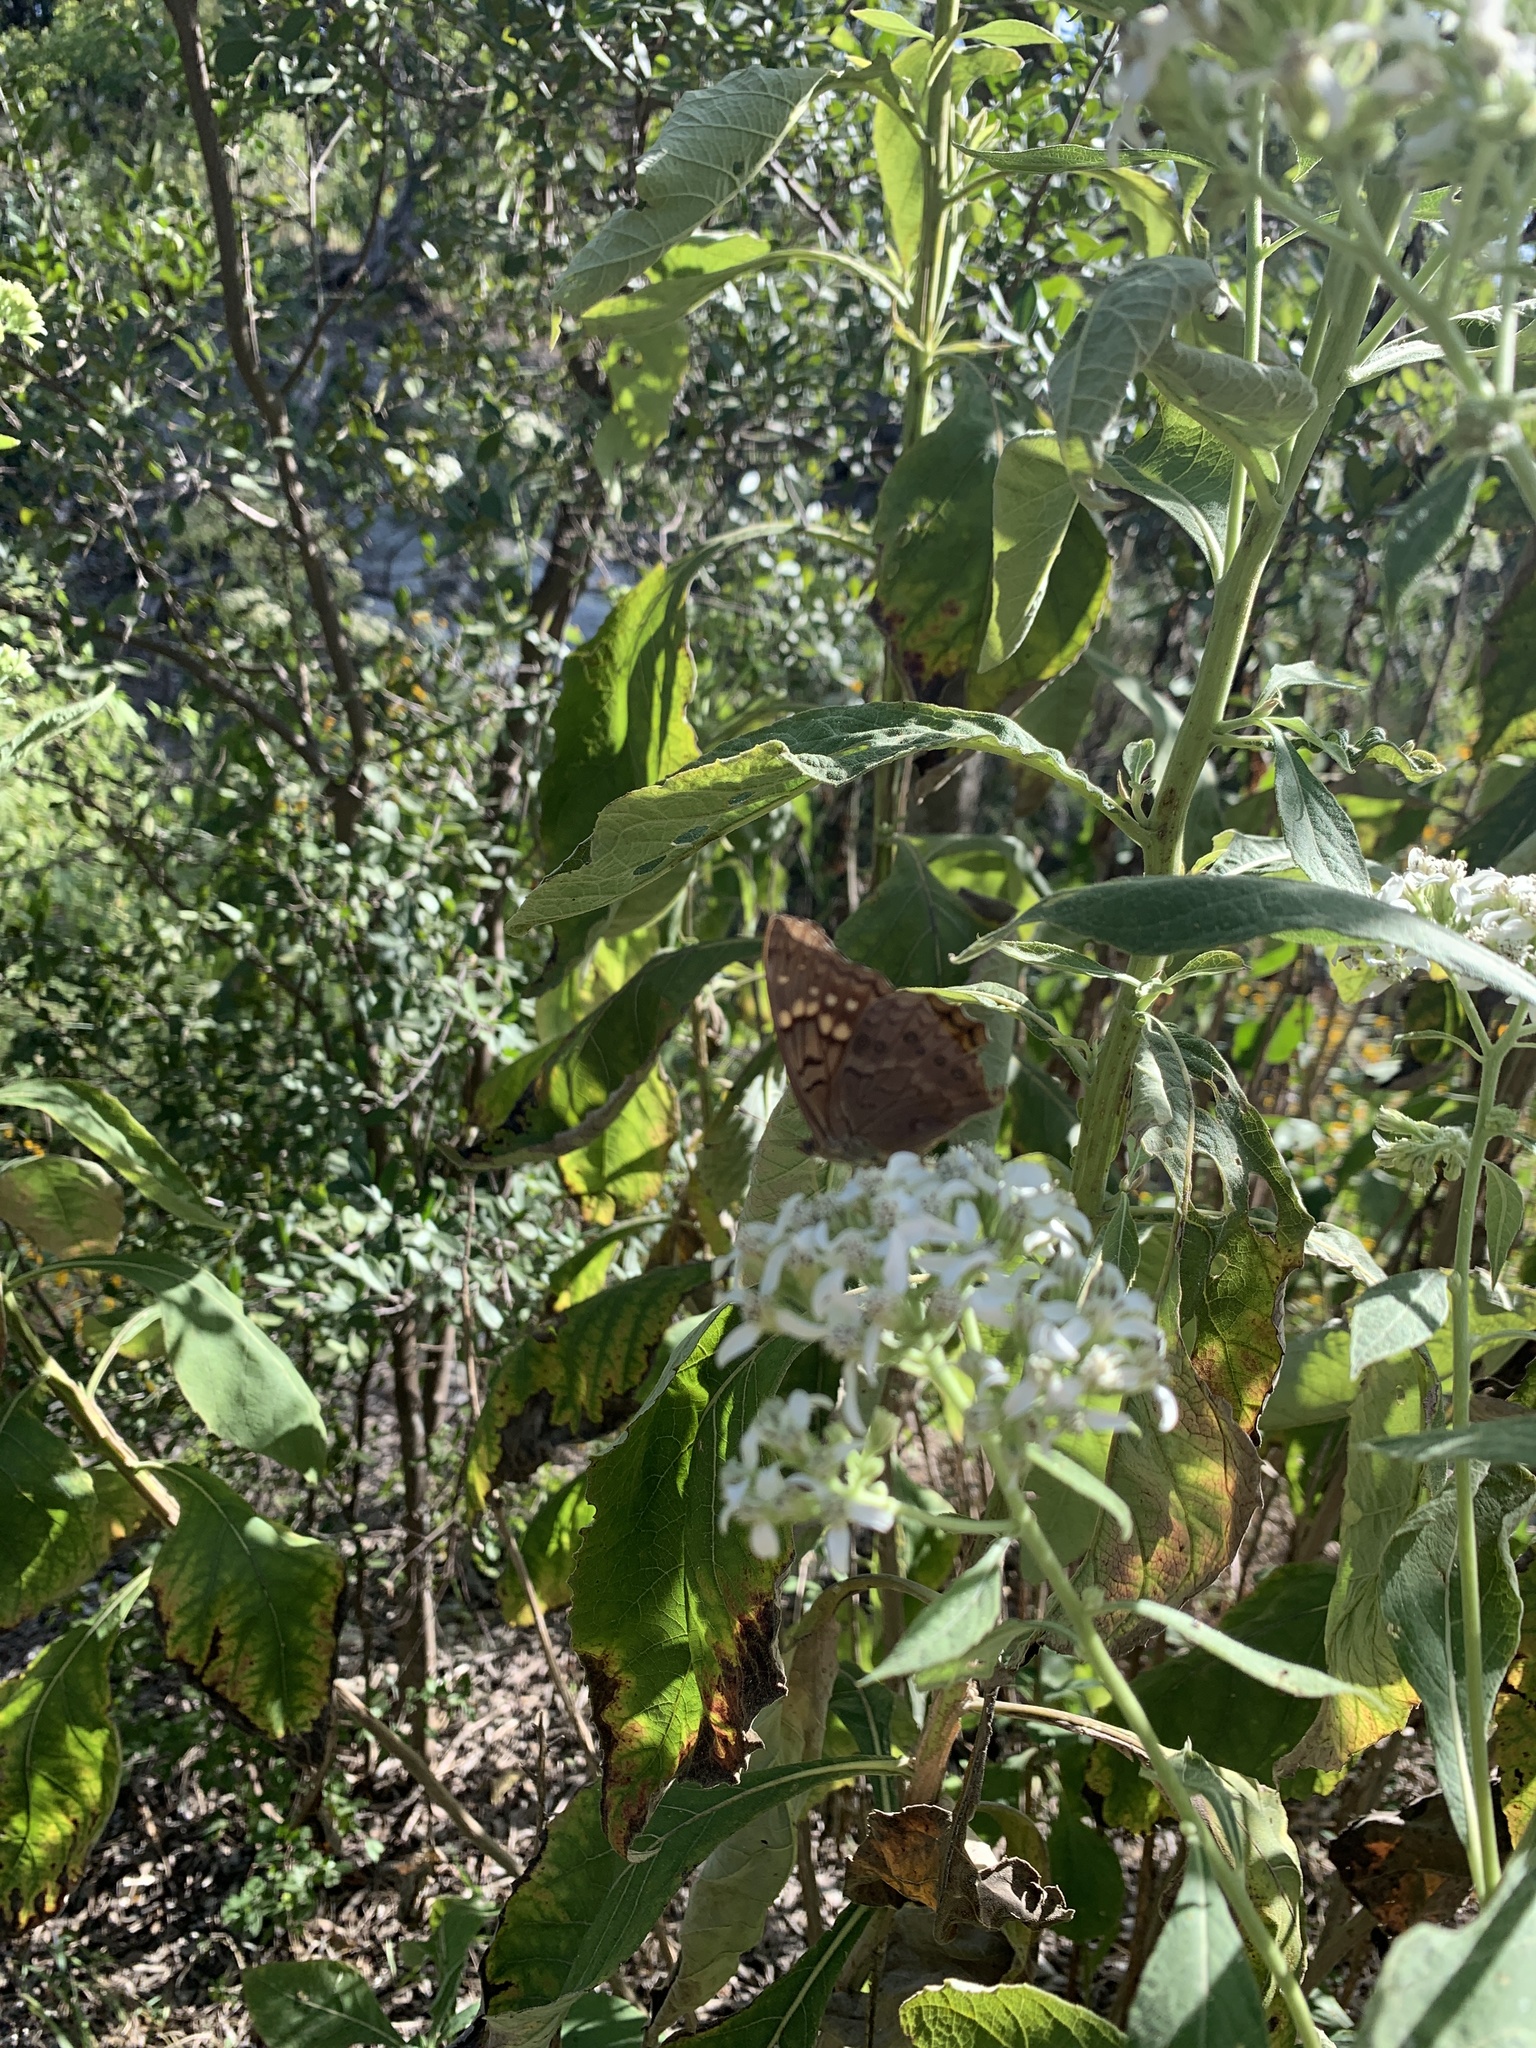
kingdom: Animalia
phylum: Arthropoda
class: Insecta
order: Lepidoptera
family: Nymphalidae
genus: Asterocampa
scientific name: Asterocampa clyton
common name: Tawny emperor
